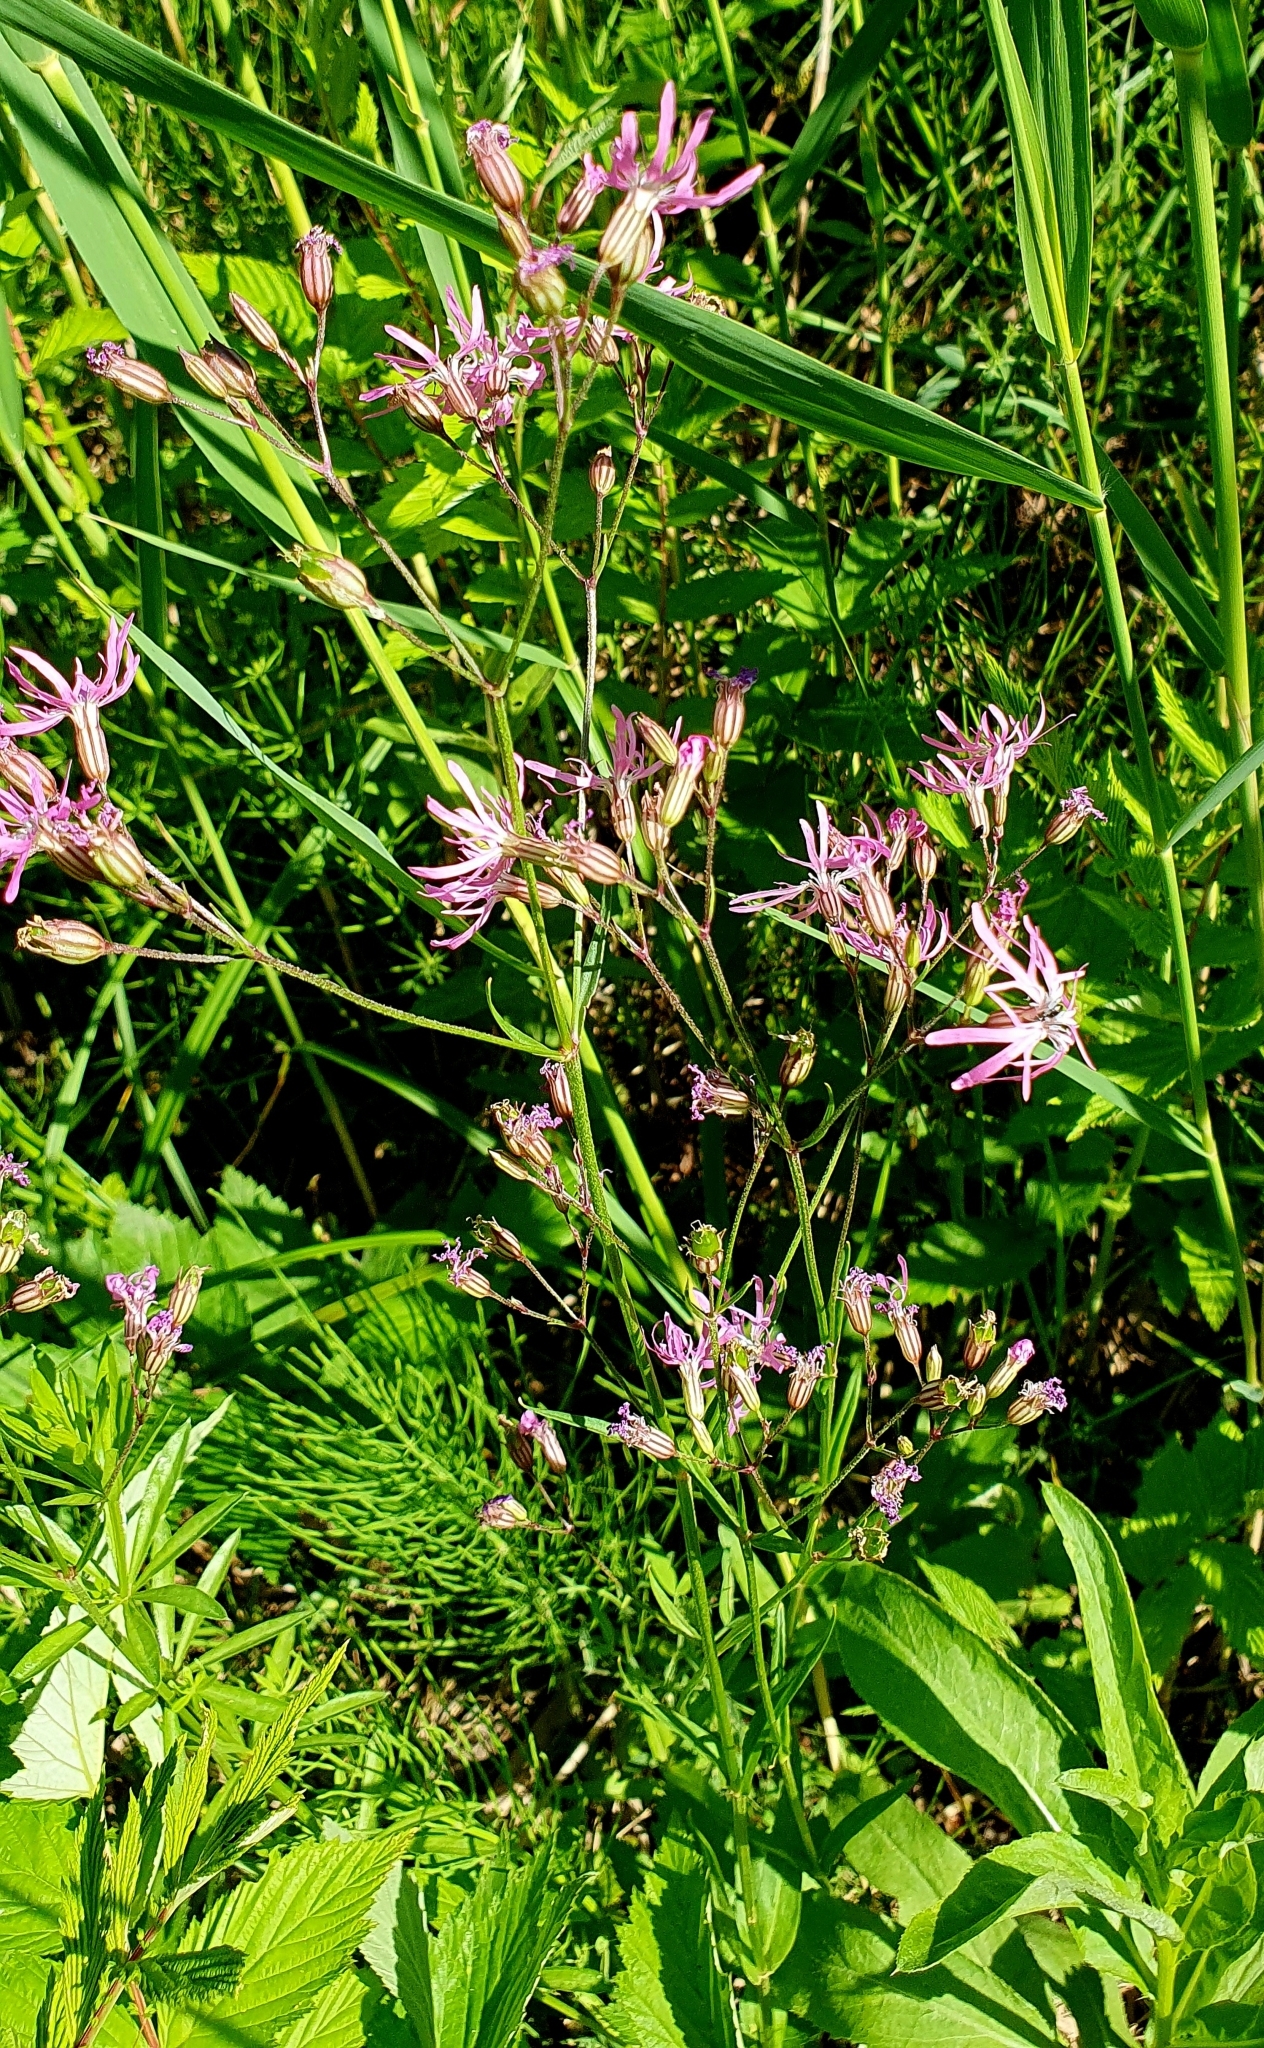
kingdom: Plantae
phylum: Tracheophyta
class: Magnoliopsida
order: Caryophyllales
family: Caryophyllaceae
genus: Silene
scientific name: Silene flos-cuculi
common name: Ragged-robin
